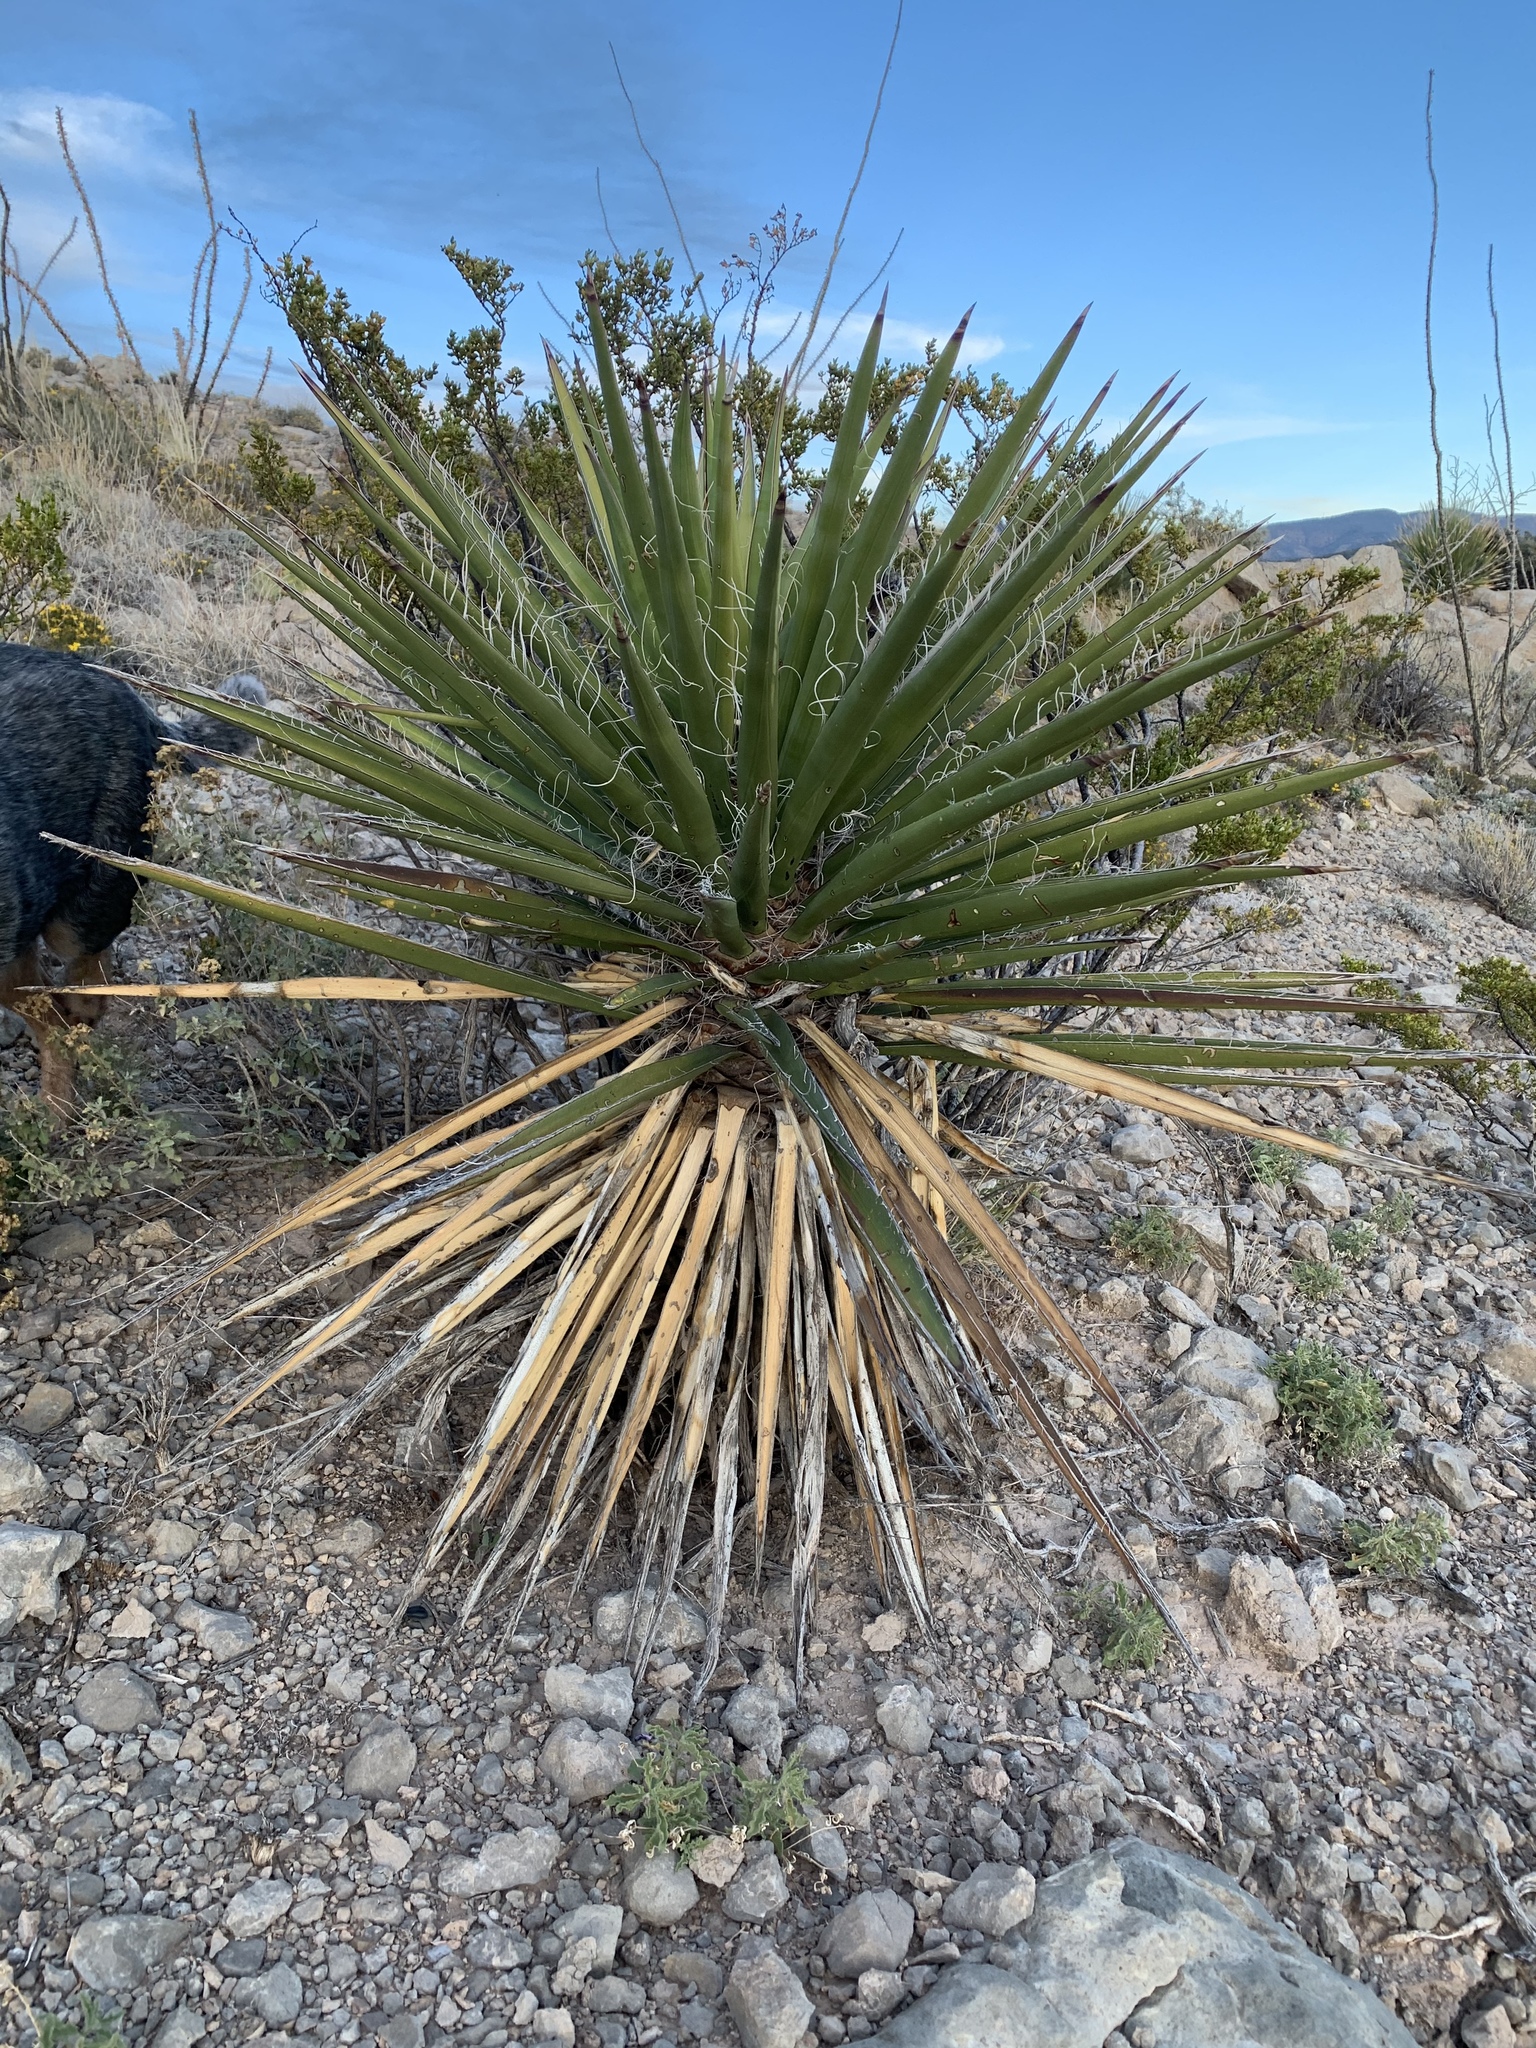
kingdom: Plantae
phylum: Tracheophyta
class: Liliopsida
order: Asparagales
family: Asparagaceae
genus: Dasylirion
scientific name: Dasylirion wheeleri
